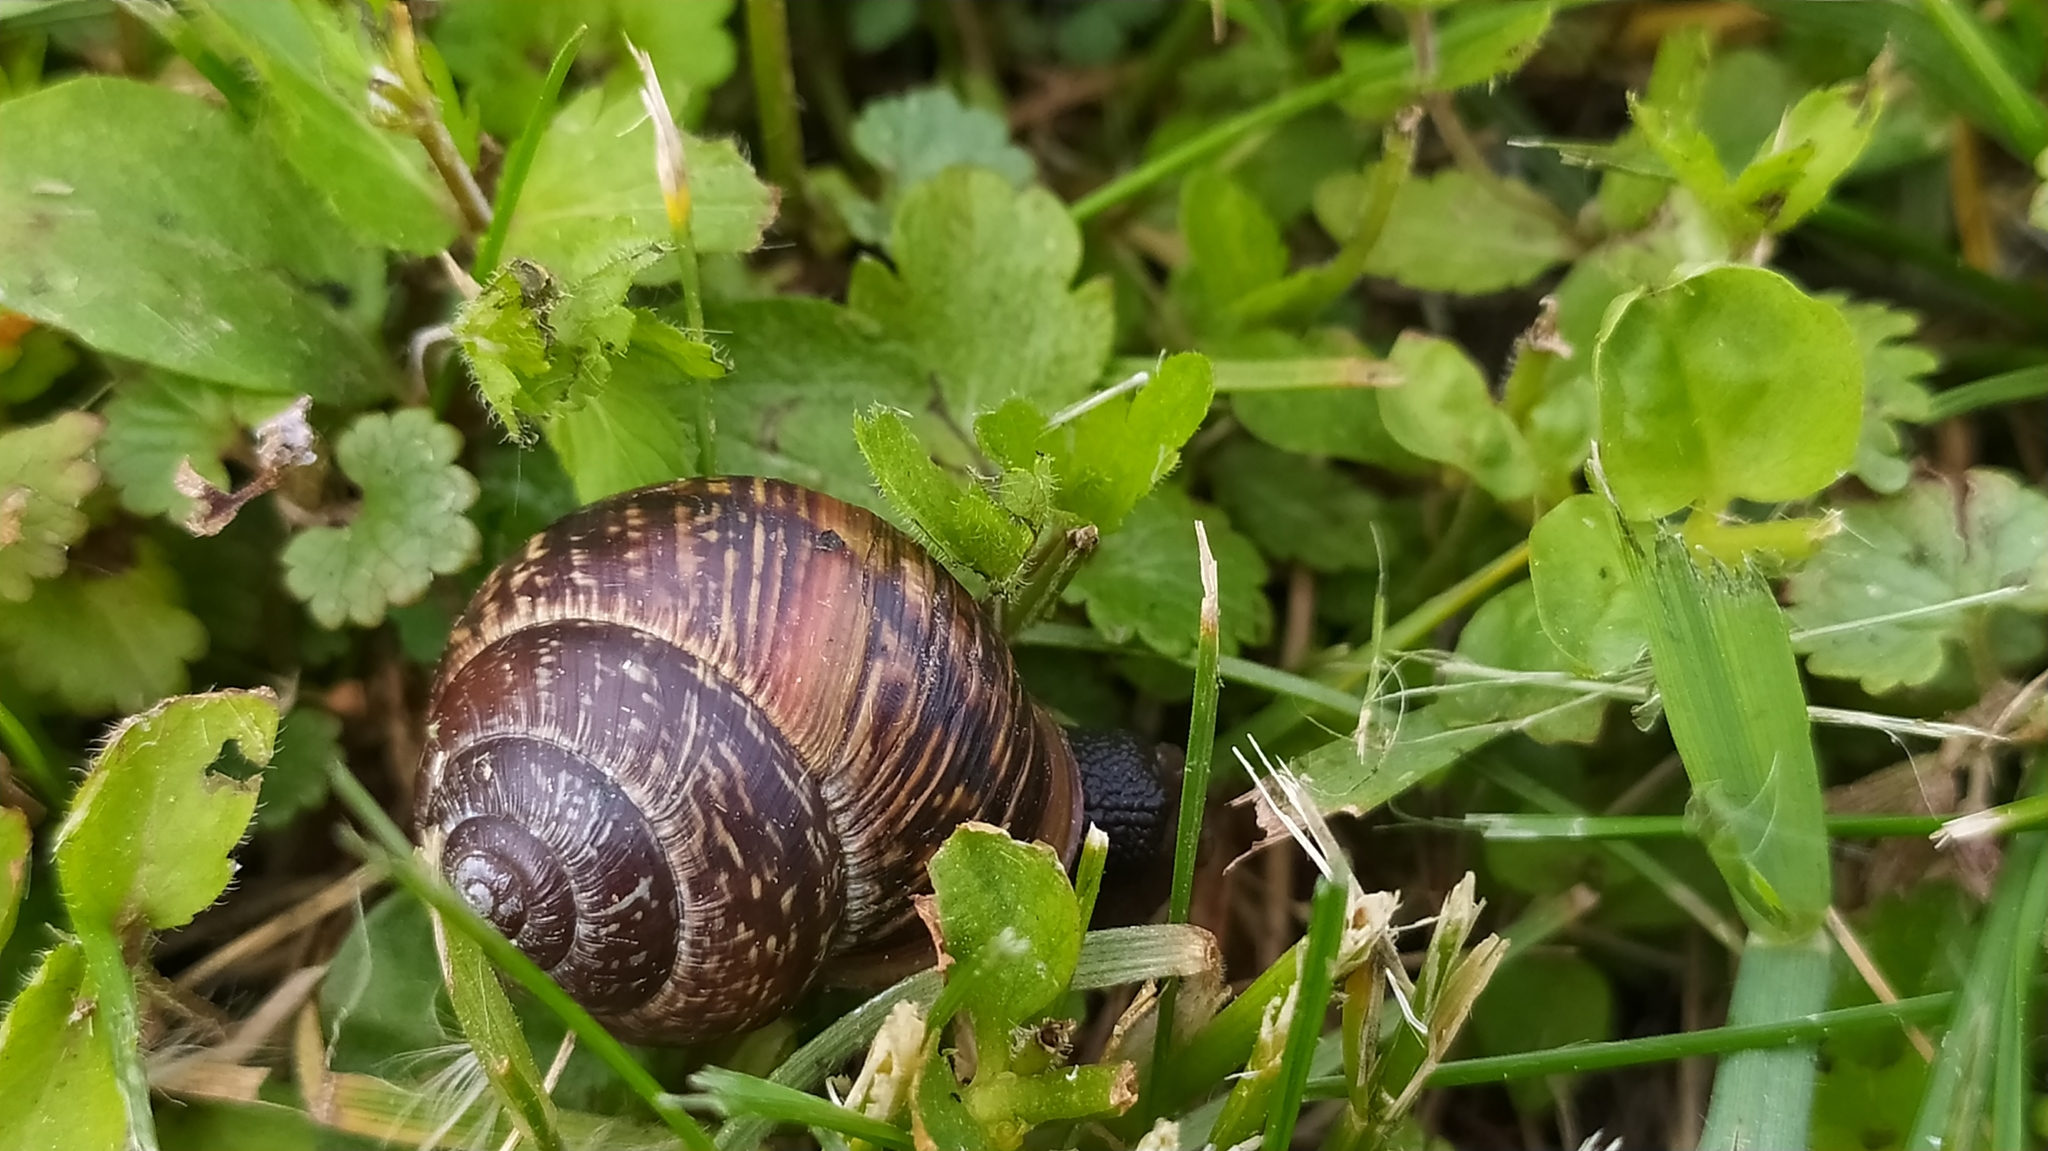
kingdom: Animalia
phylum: Mollusca
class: Gastropoda
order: Stylommatophora
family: Helicidae
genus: Arianta
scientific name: Arianta arbustorum
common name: Copse snail
